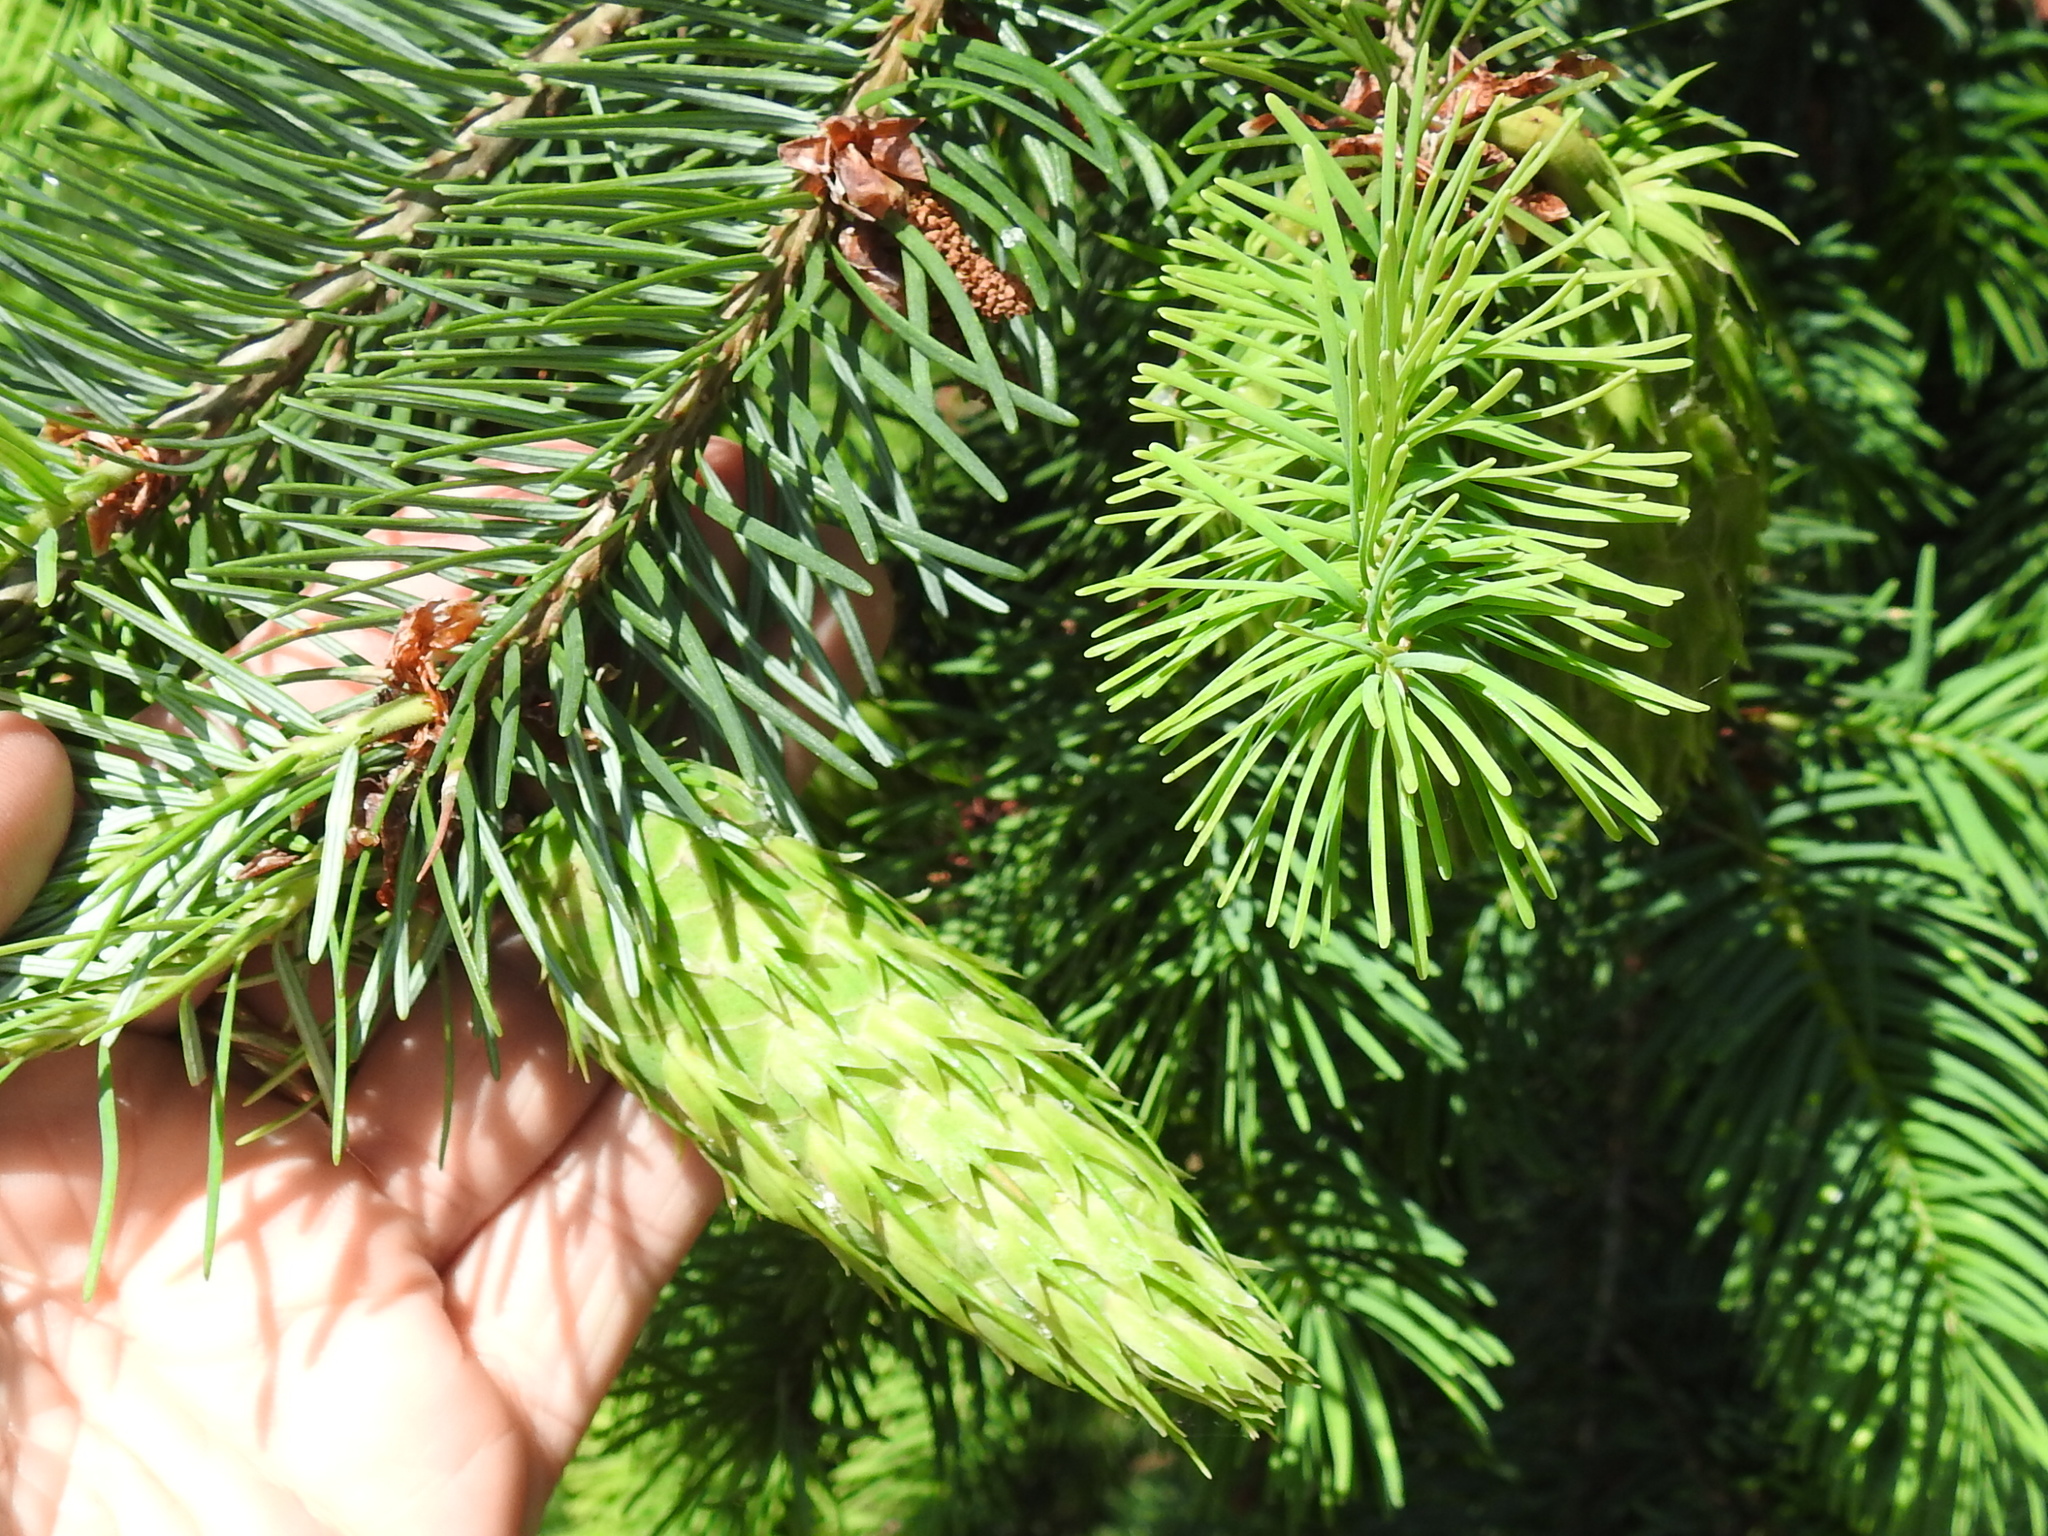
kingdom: Plantae
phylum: Tracheophyta
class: Pinopsida
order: Pinales
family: Pinaceae
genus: Pseudotsuga
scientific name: Pseudotsuga menziesii
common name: Douglas fir
